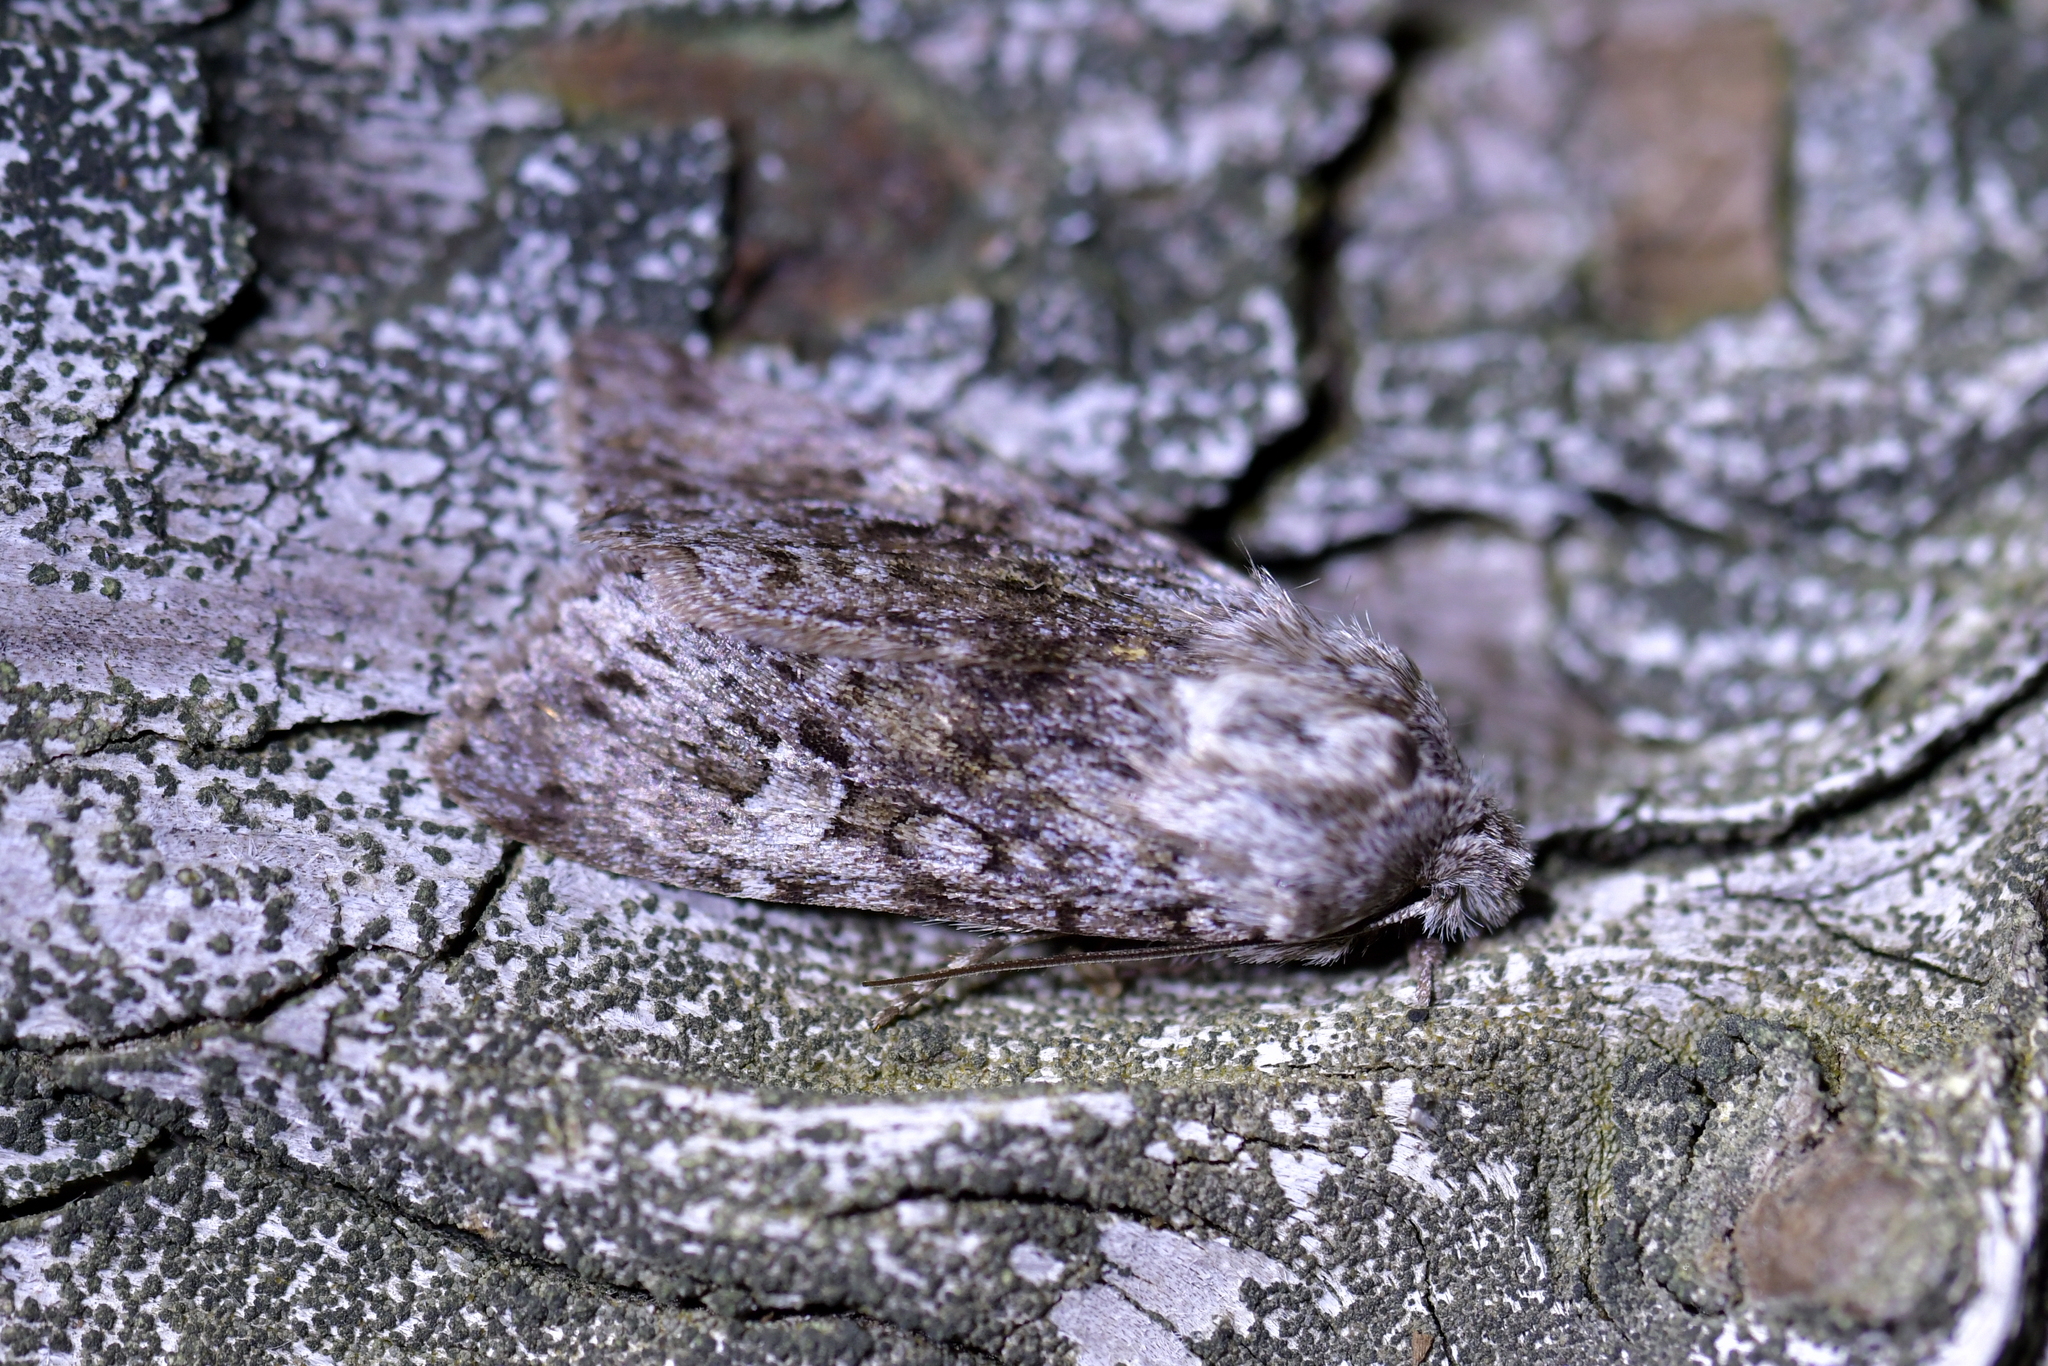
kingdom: Animalia
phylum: Arthropoda
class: Insecta
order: Lepidoptera
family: Noctuidae
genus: Physetica
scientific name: Physetica cucullina
